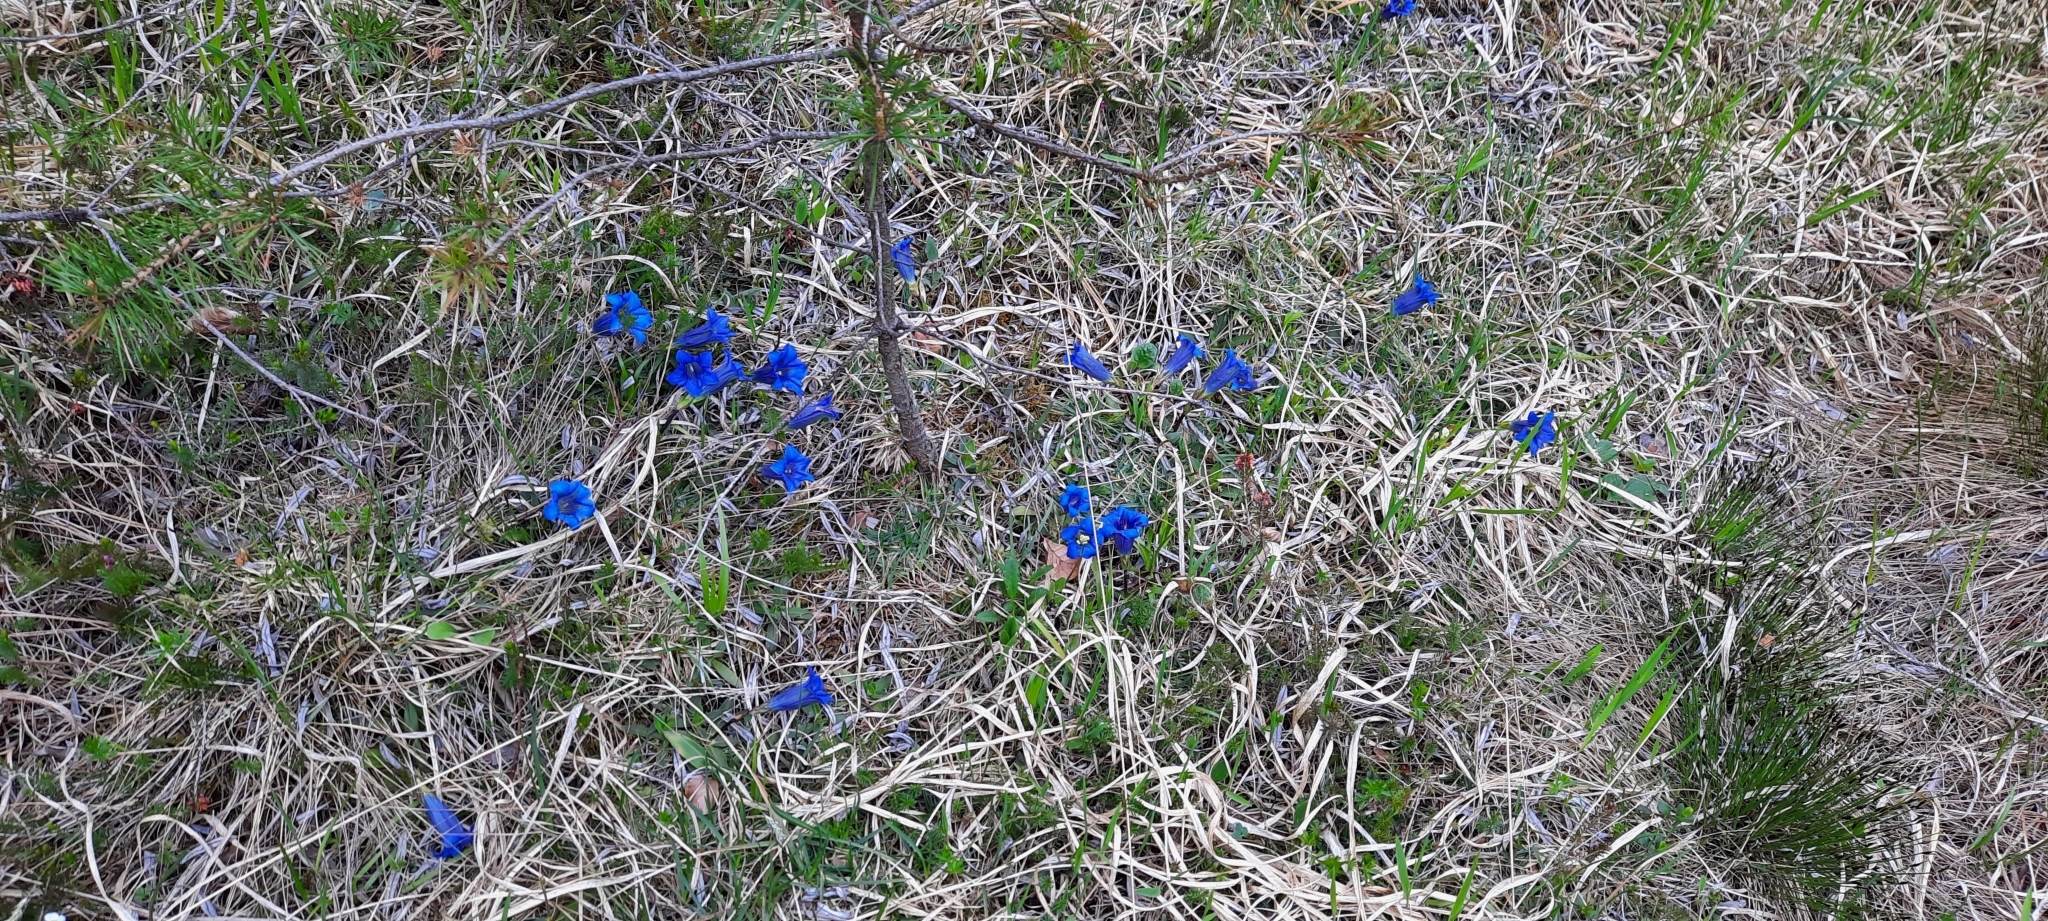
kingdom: Plantae
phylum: Tracheophyta
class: Magnoliopsida
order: Gentianales
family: Gentianaceae
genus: Gentiana
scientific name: Gentiana clusii
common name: Trumpet gentian
